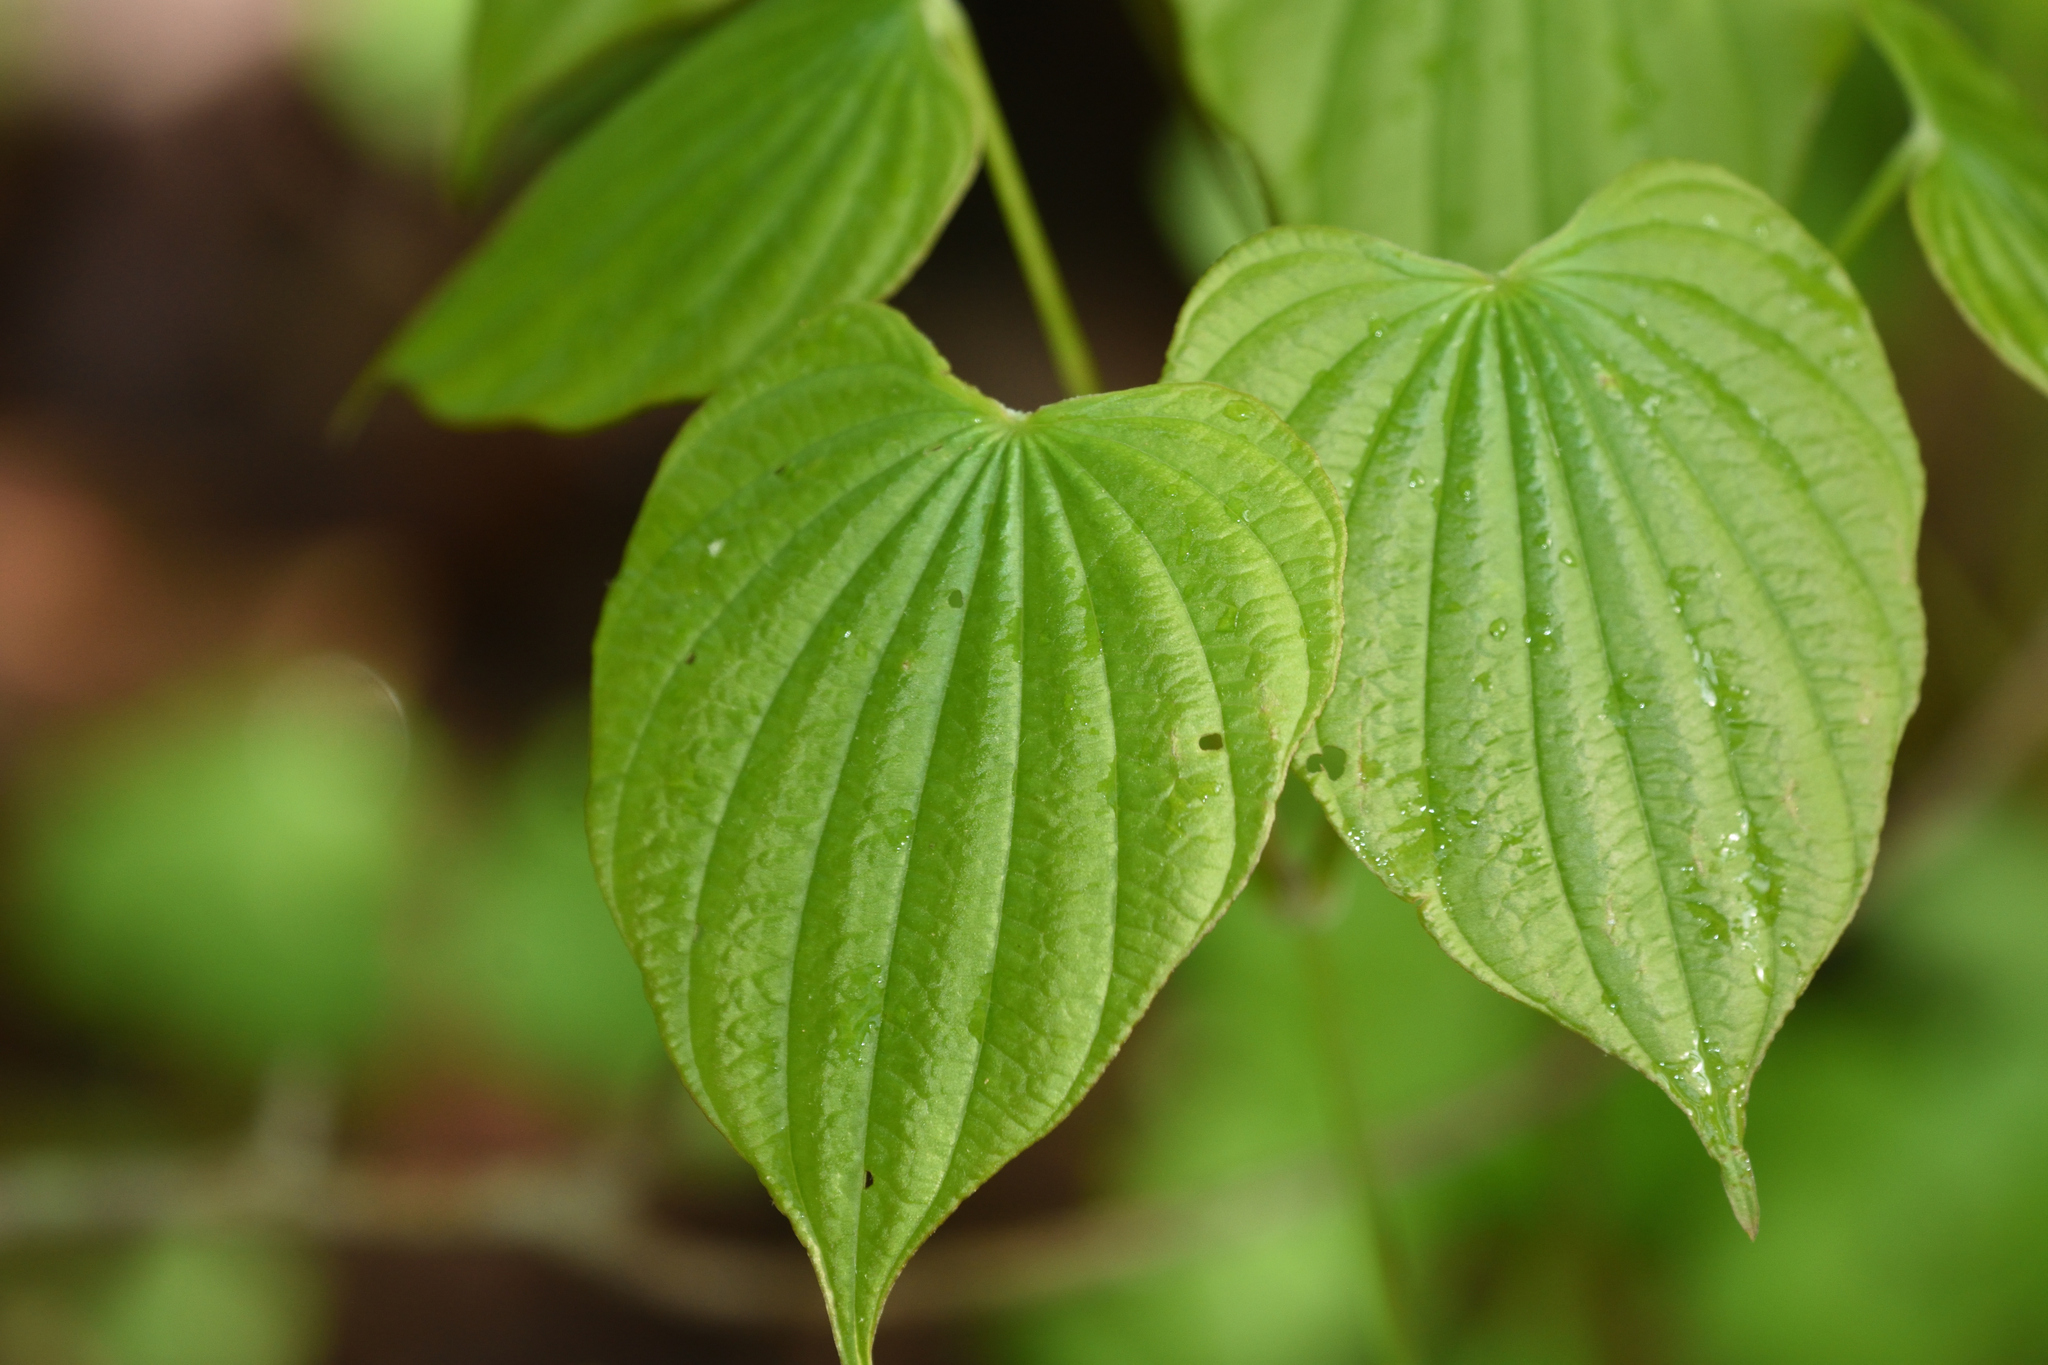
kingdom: Plantae
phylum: Tracheophyta
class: Liliopsida
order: Dioscoreales
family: Dioscoreaceae
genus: Dioscorea
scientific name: Dioscorea villosa
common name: Wild yam
